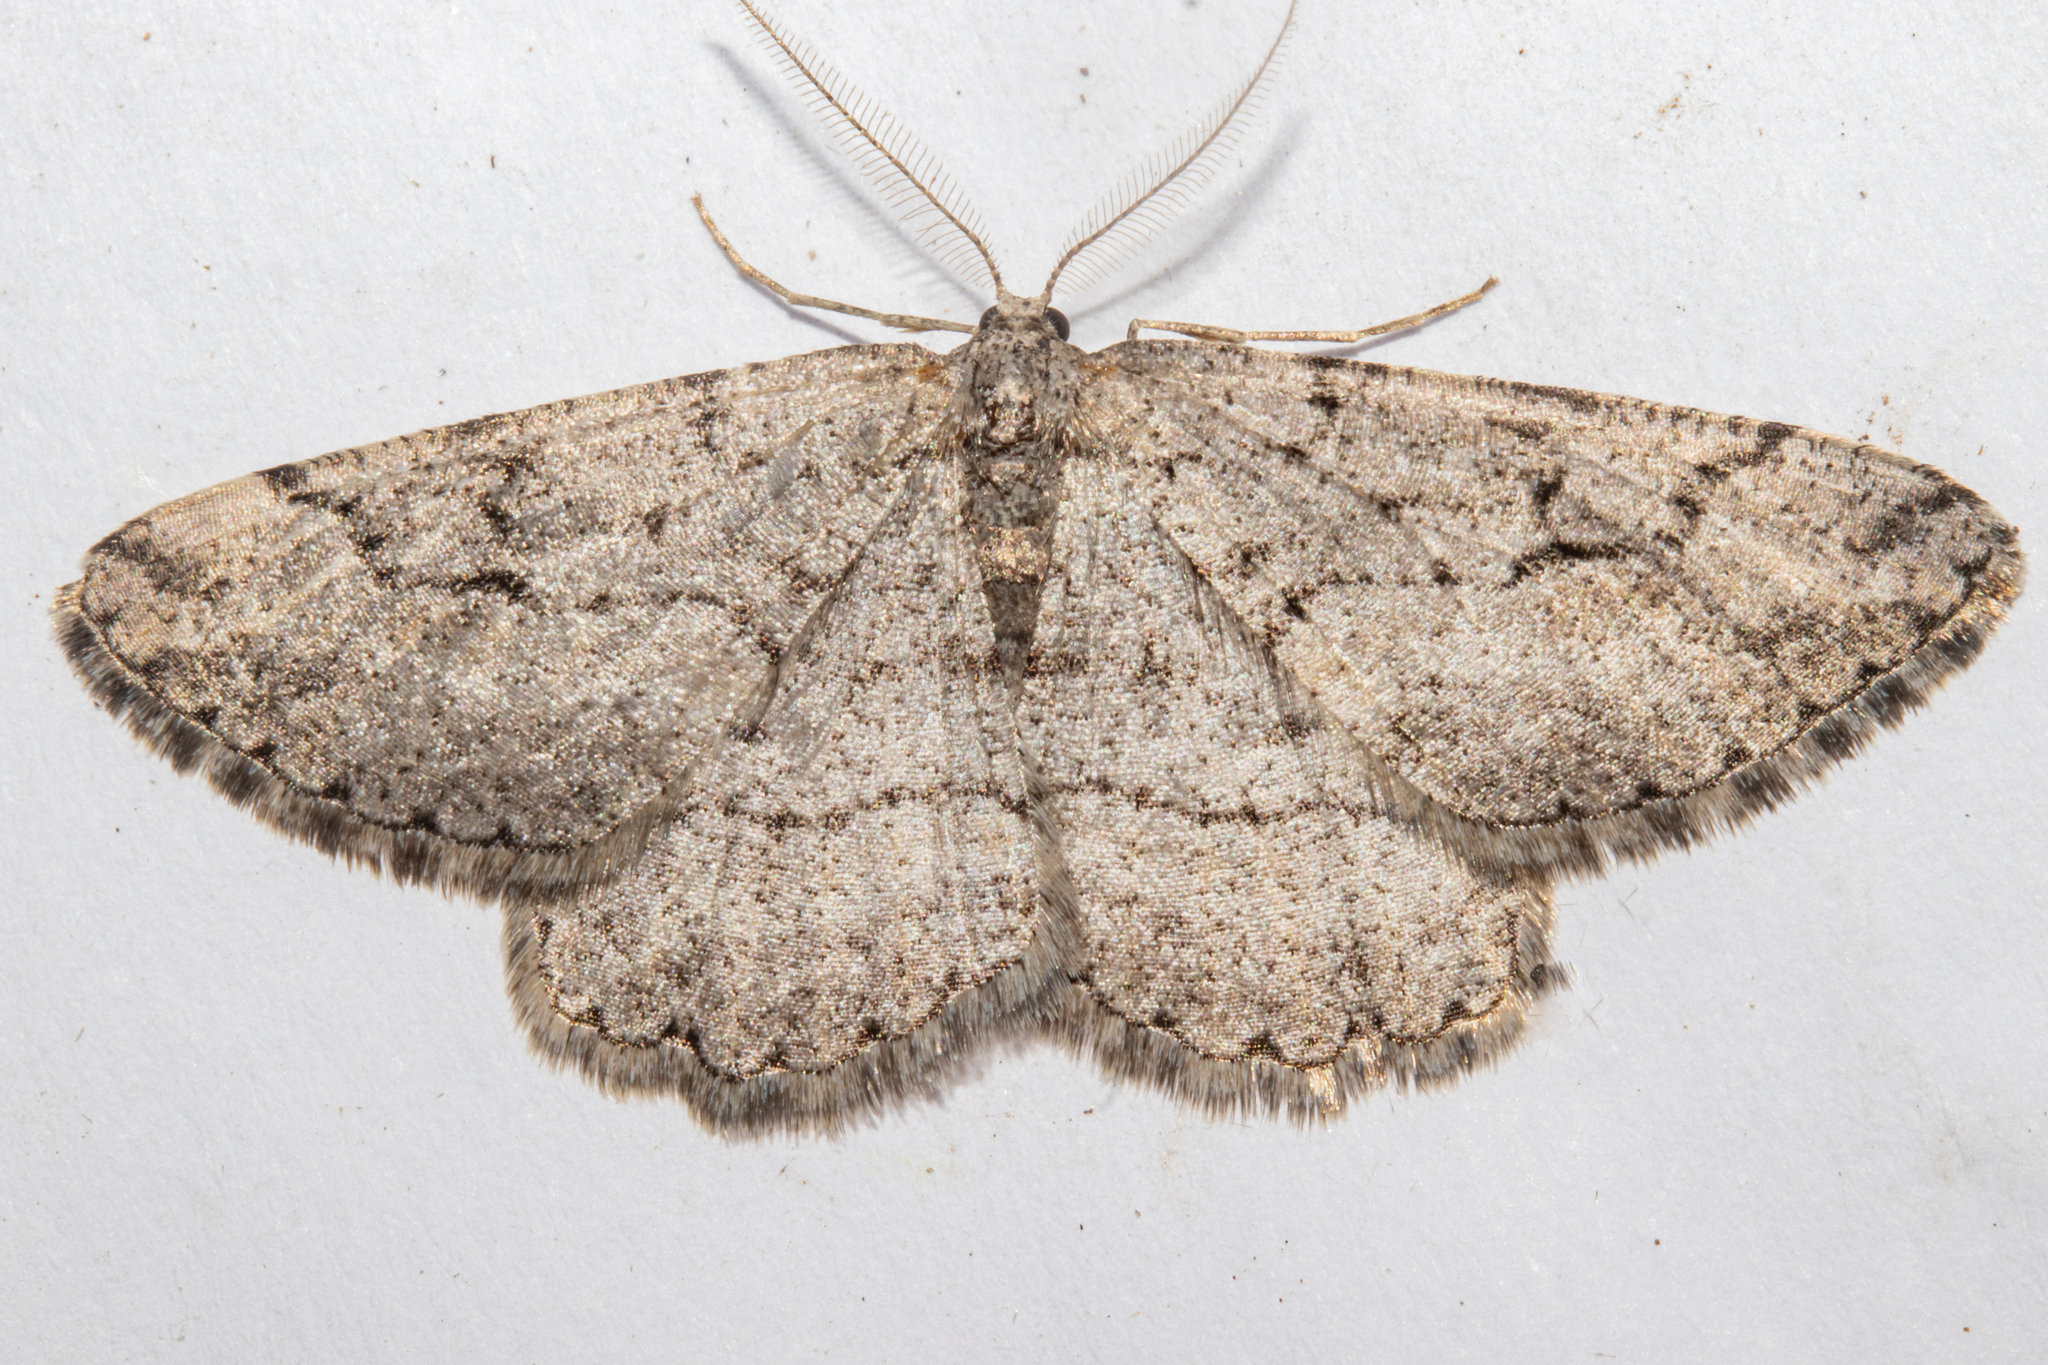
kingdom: Animalia
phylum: Arthropoda
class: Insecta
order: Lepidoptera
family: Geometridae
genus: Zermizinga
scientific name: Zermizinga indocilisaria
